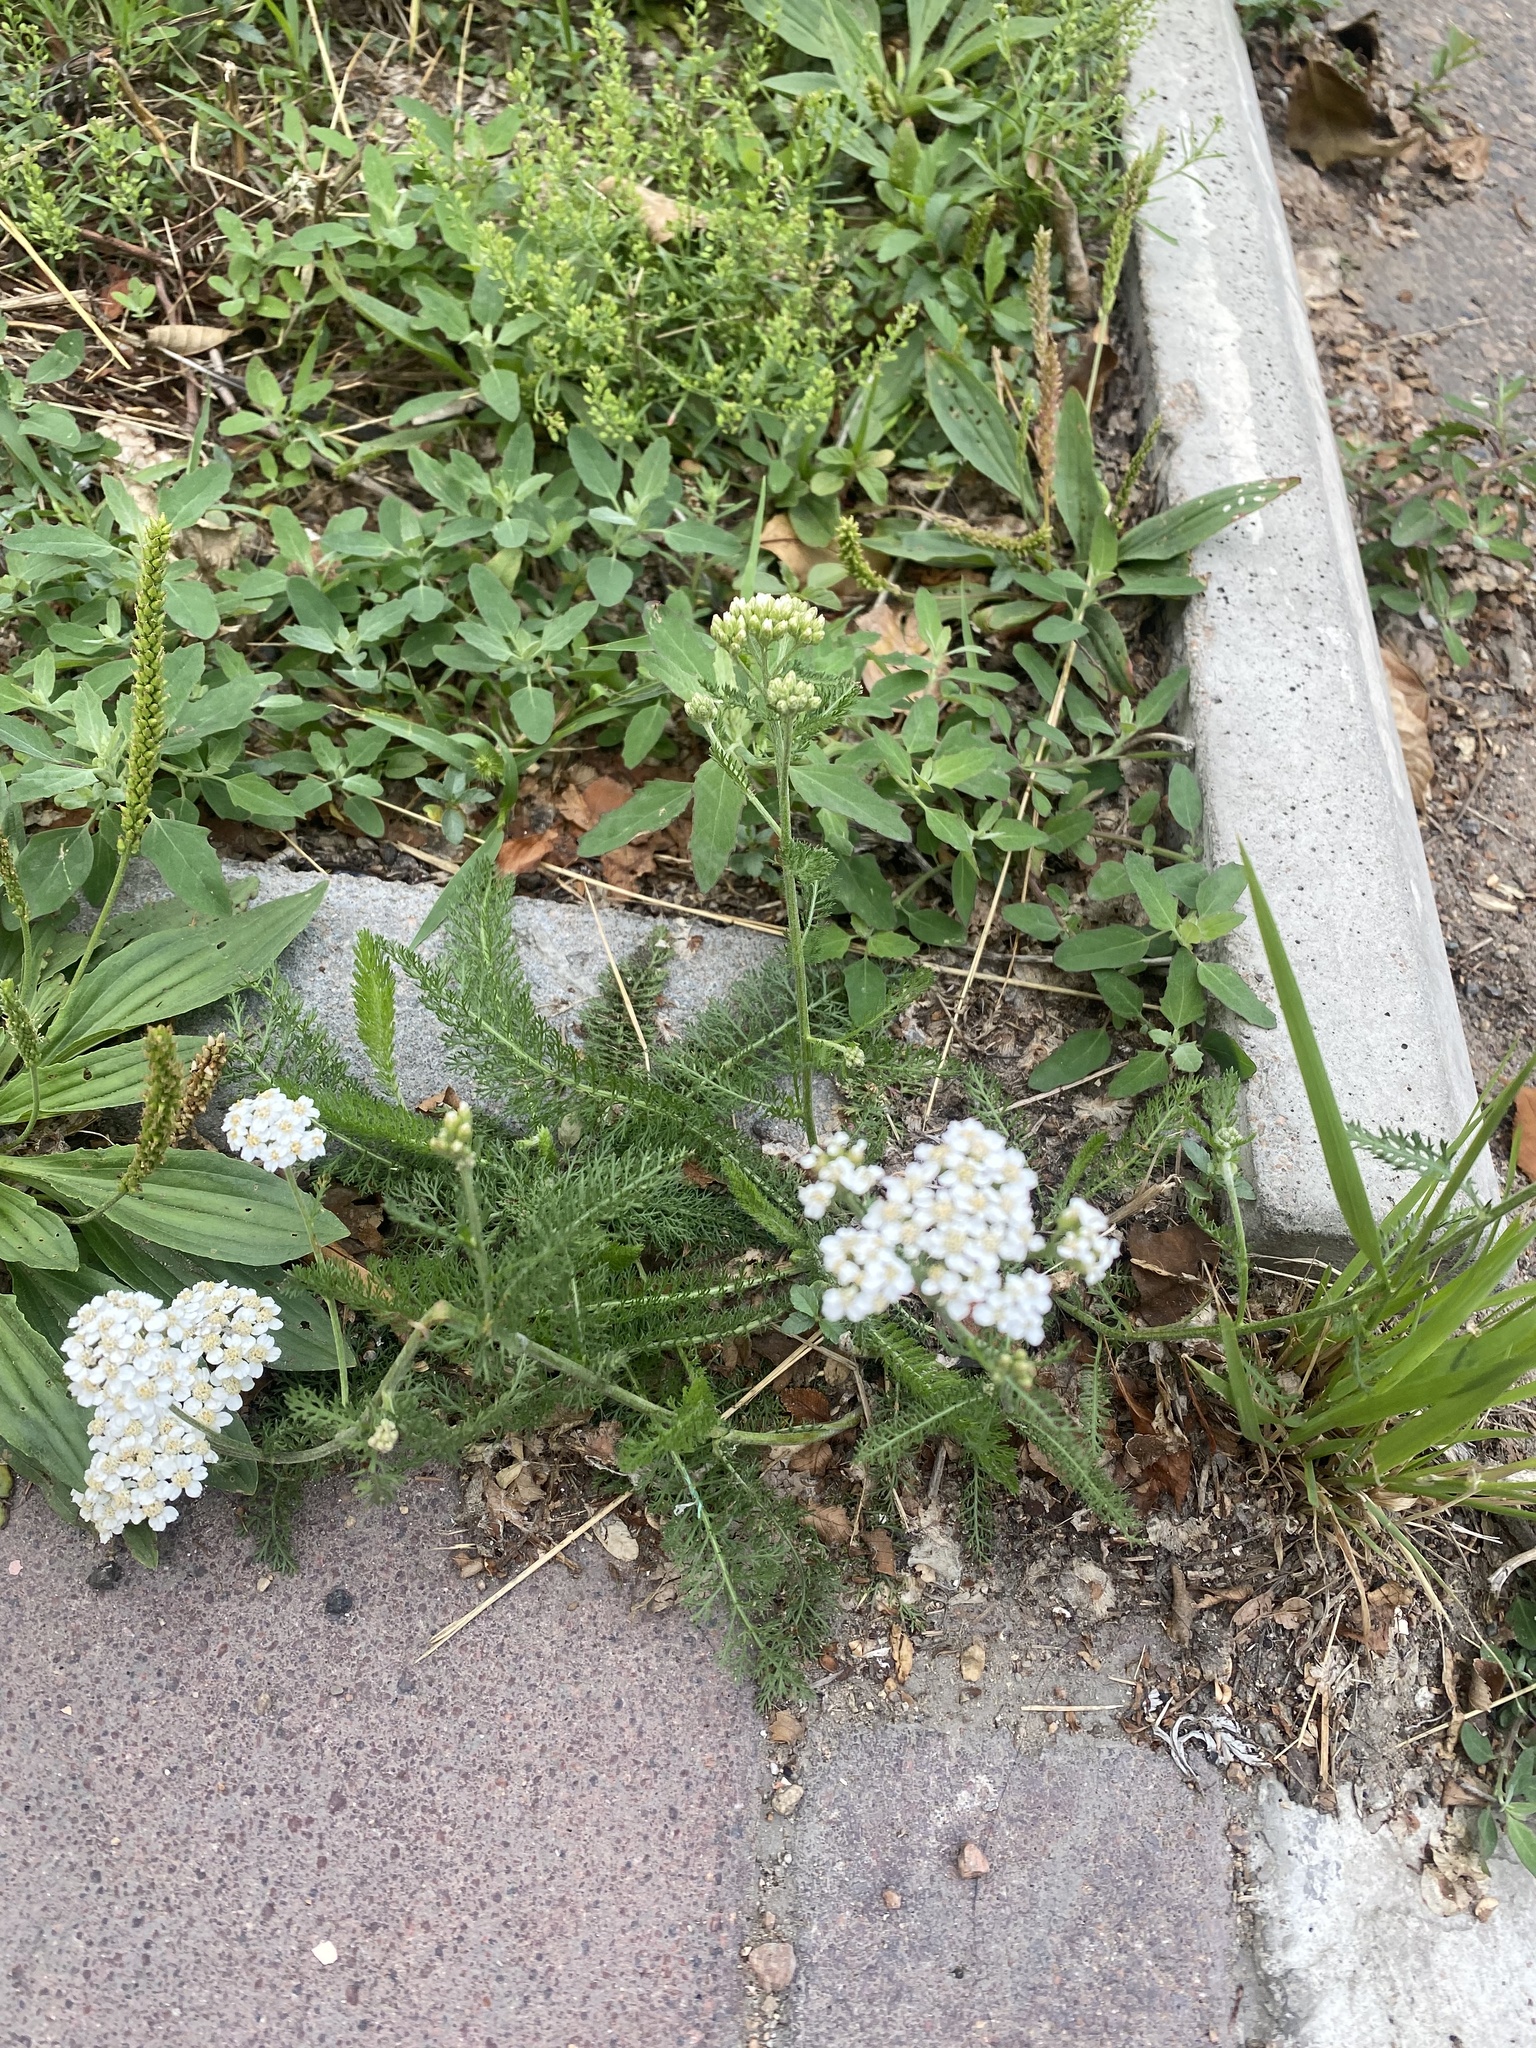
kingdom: Plantae
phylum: Tracheophyta
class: Magnoliopsida
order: Asterales
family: Asteraceae
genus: Achillea
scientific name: Achillea millefolium
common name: Yarrow
